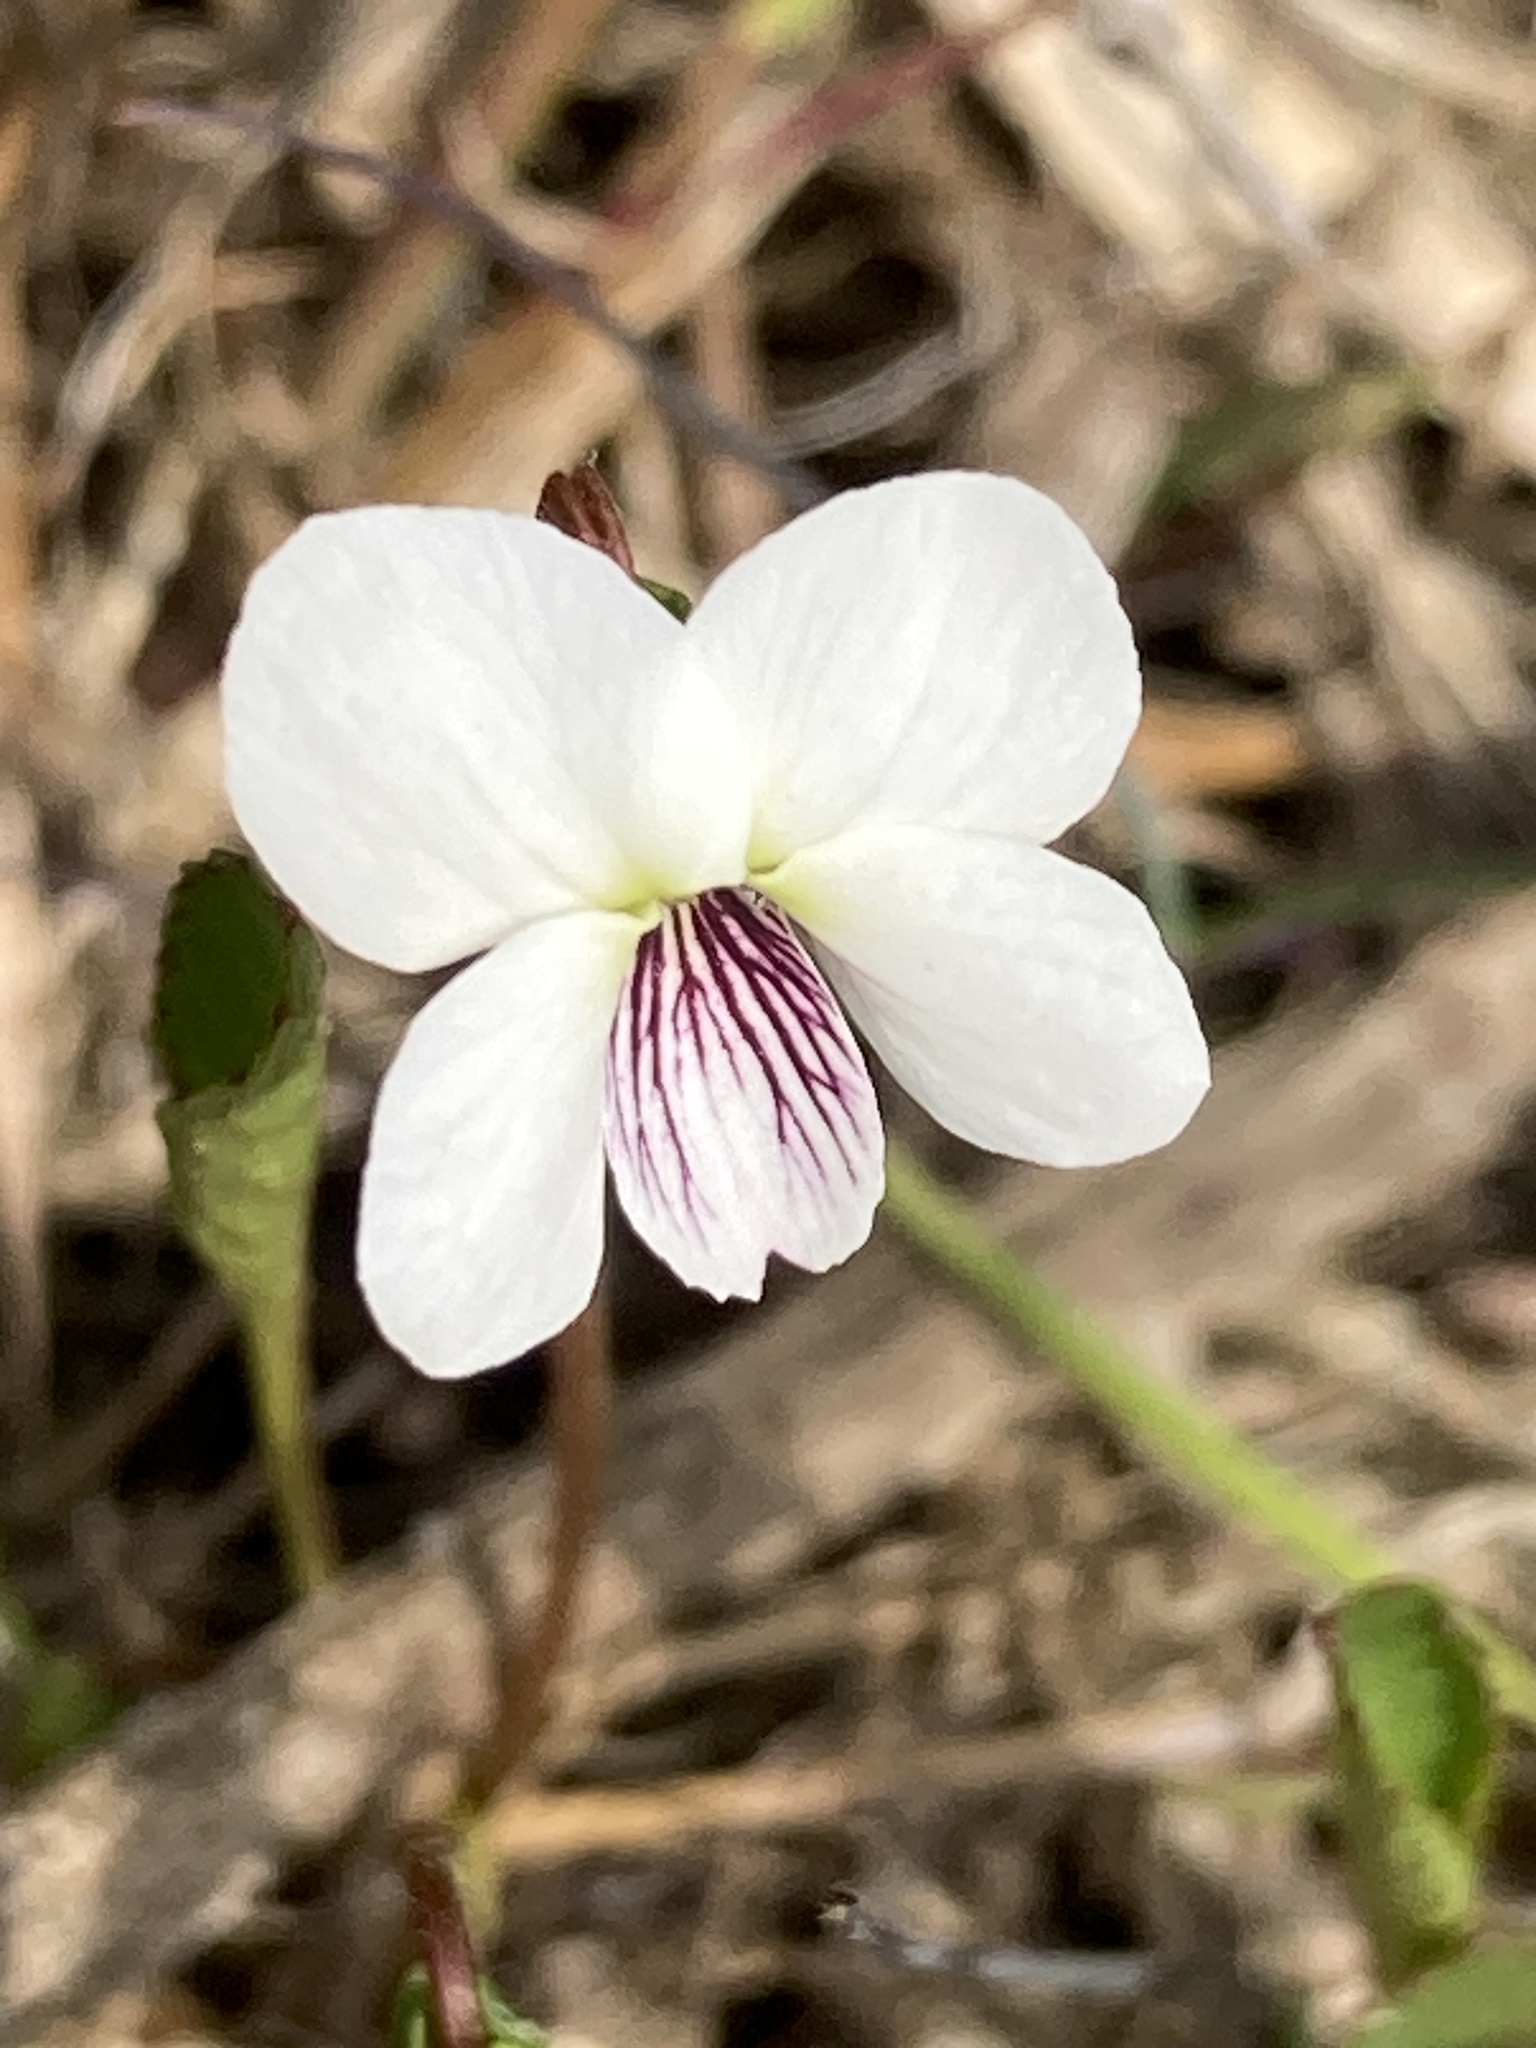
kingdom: Plantae
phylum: Tracheophyta
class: Magnoliopsida
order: Malpighiales
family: Violaceae
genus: Viola
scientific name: Viola lanceolata
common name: Bog white violet
